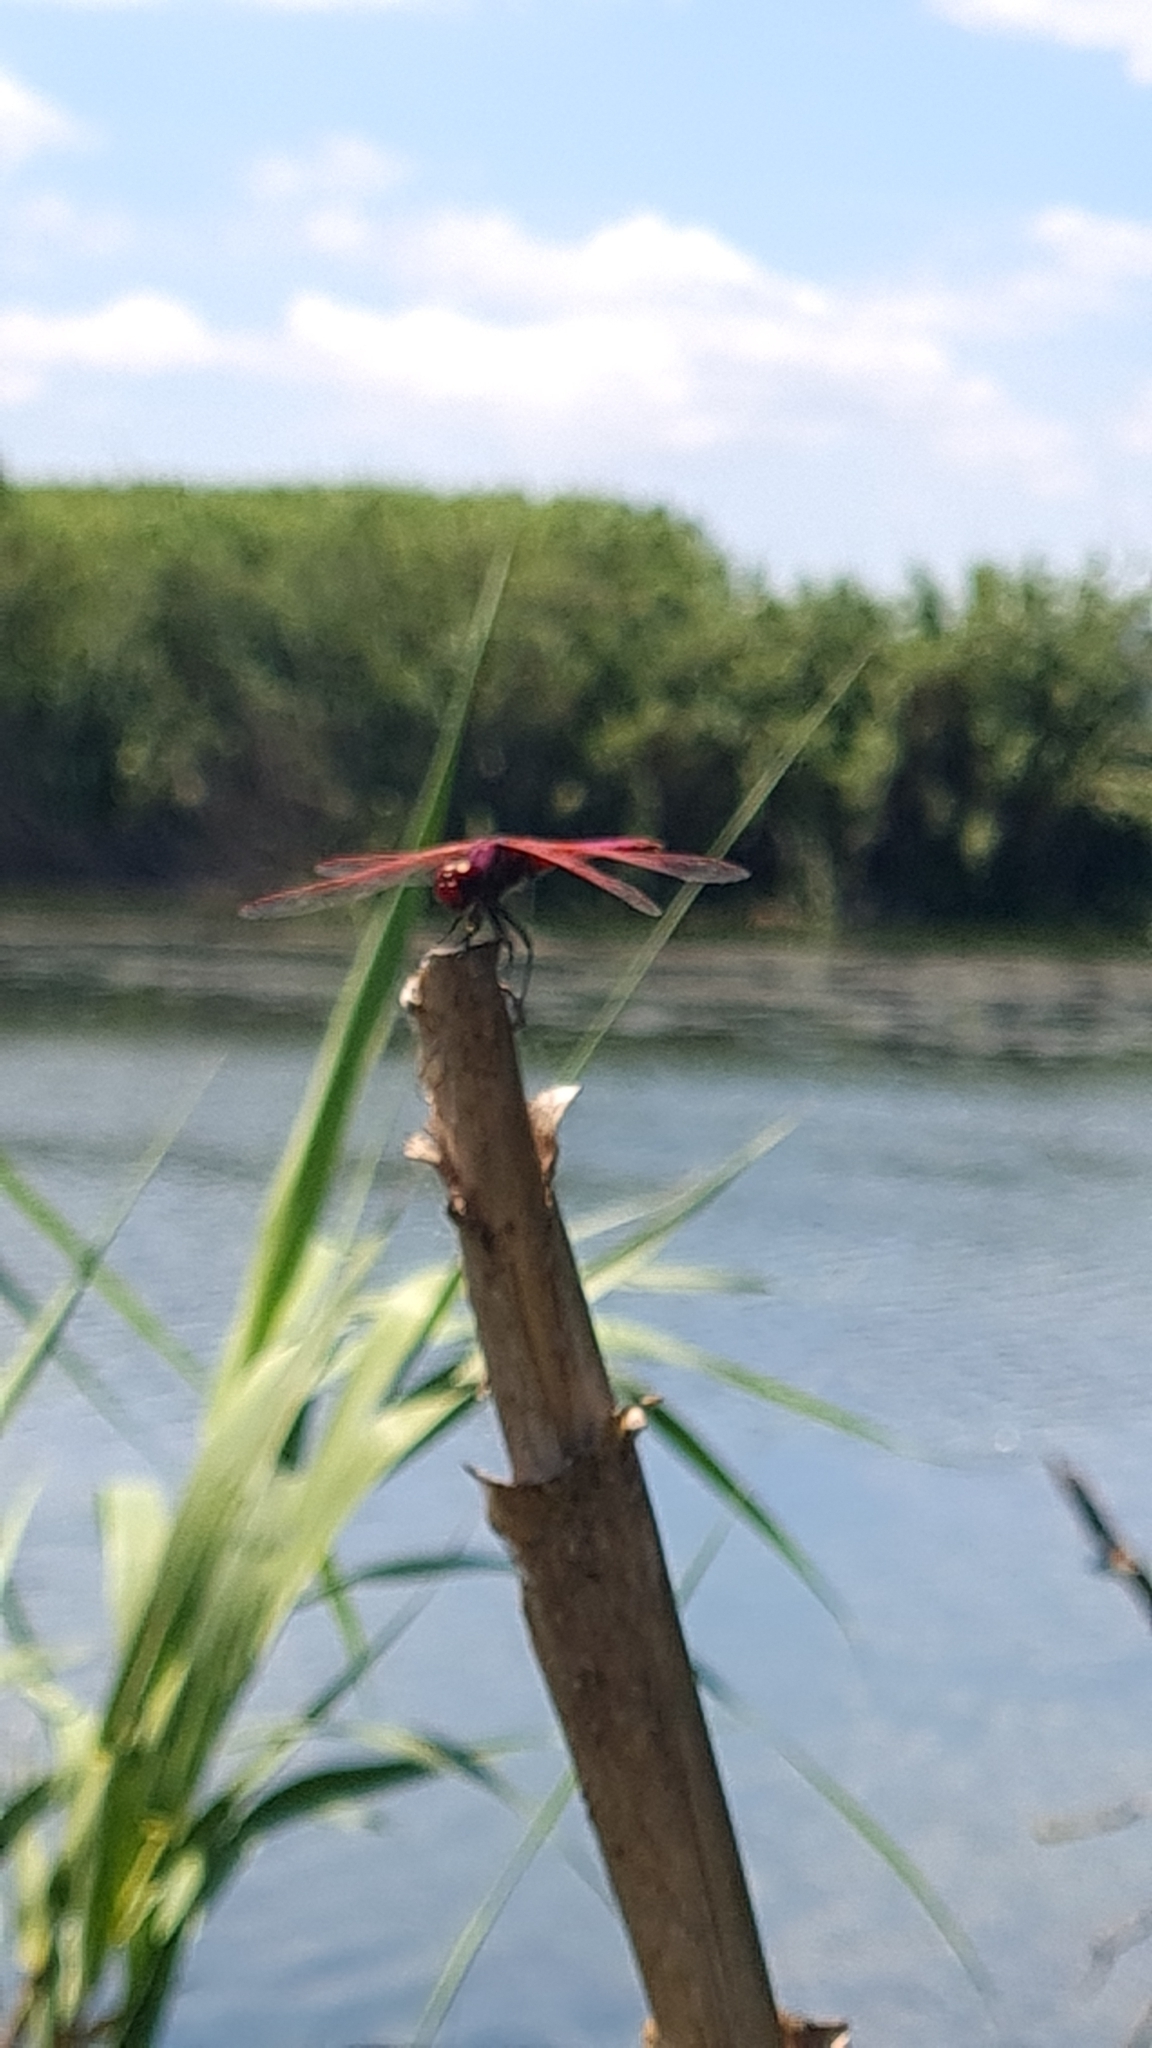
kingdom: Animalia
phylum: Arthropoda
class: Insecta
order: Odonata
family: Libellulidae
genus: Trithemis
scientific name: Trithemis annulata
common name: Violet dropwing
